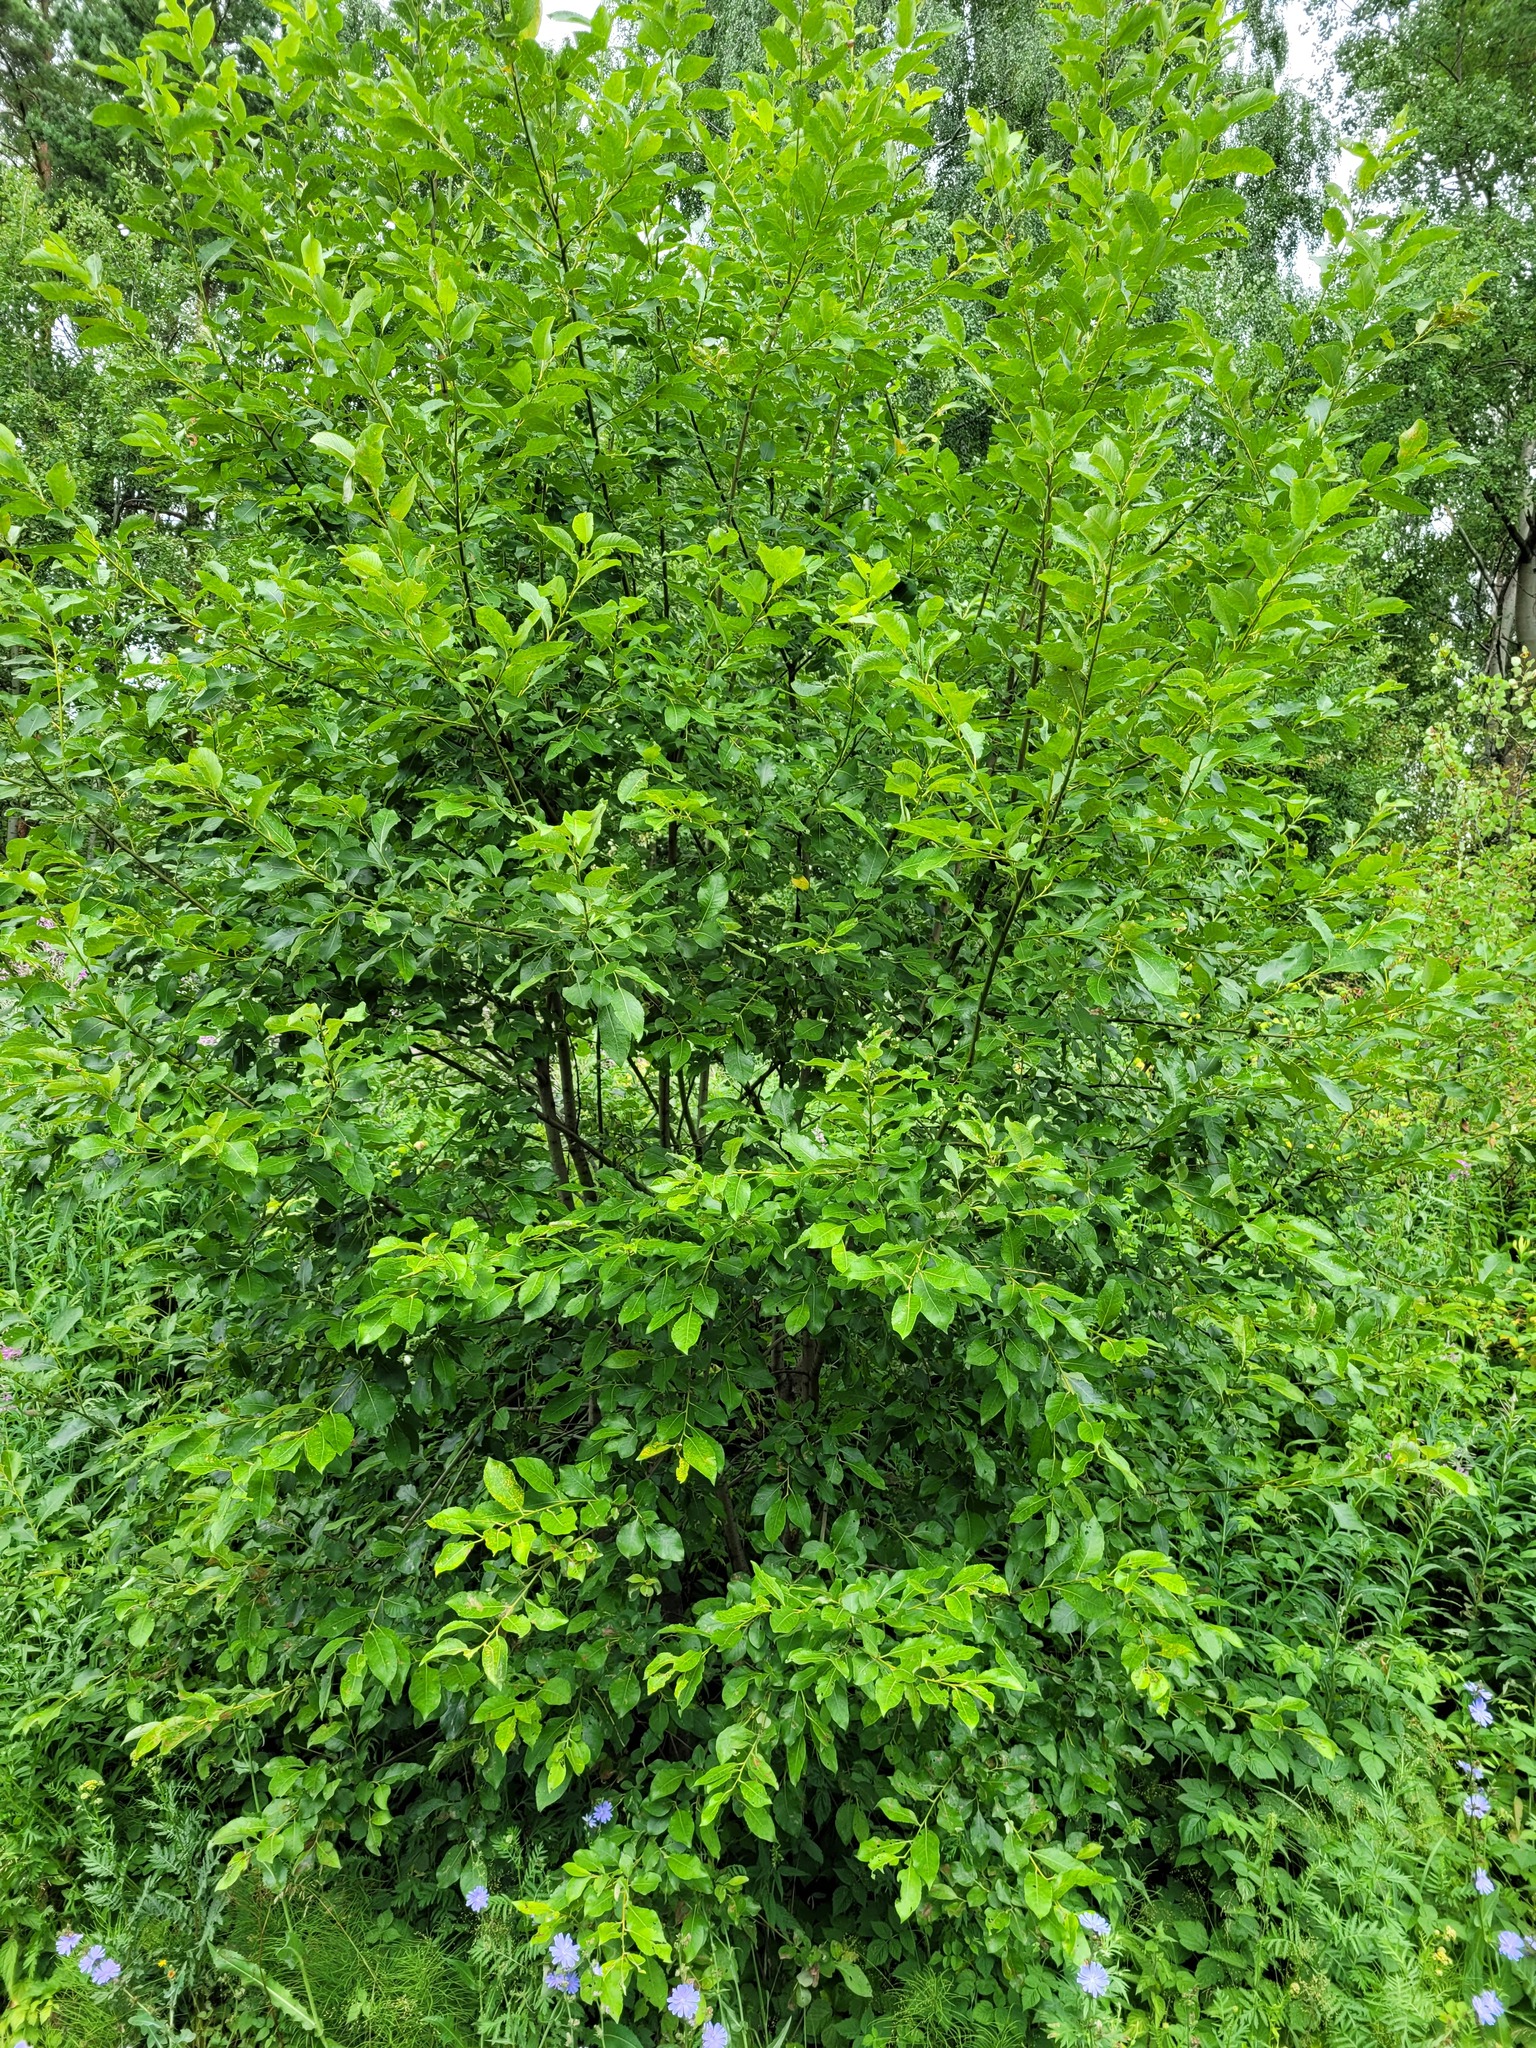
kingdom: Plantae
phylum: Tracheophyta
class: Magnoliopsida
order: Malpighiales
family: Salicaceae
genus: Salix
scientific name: Salix caprea
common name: Goat willow
